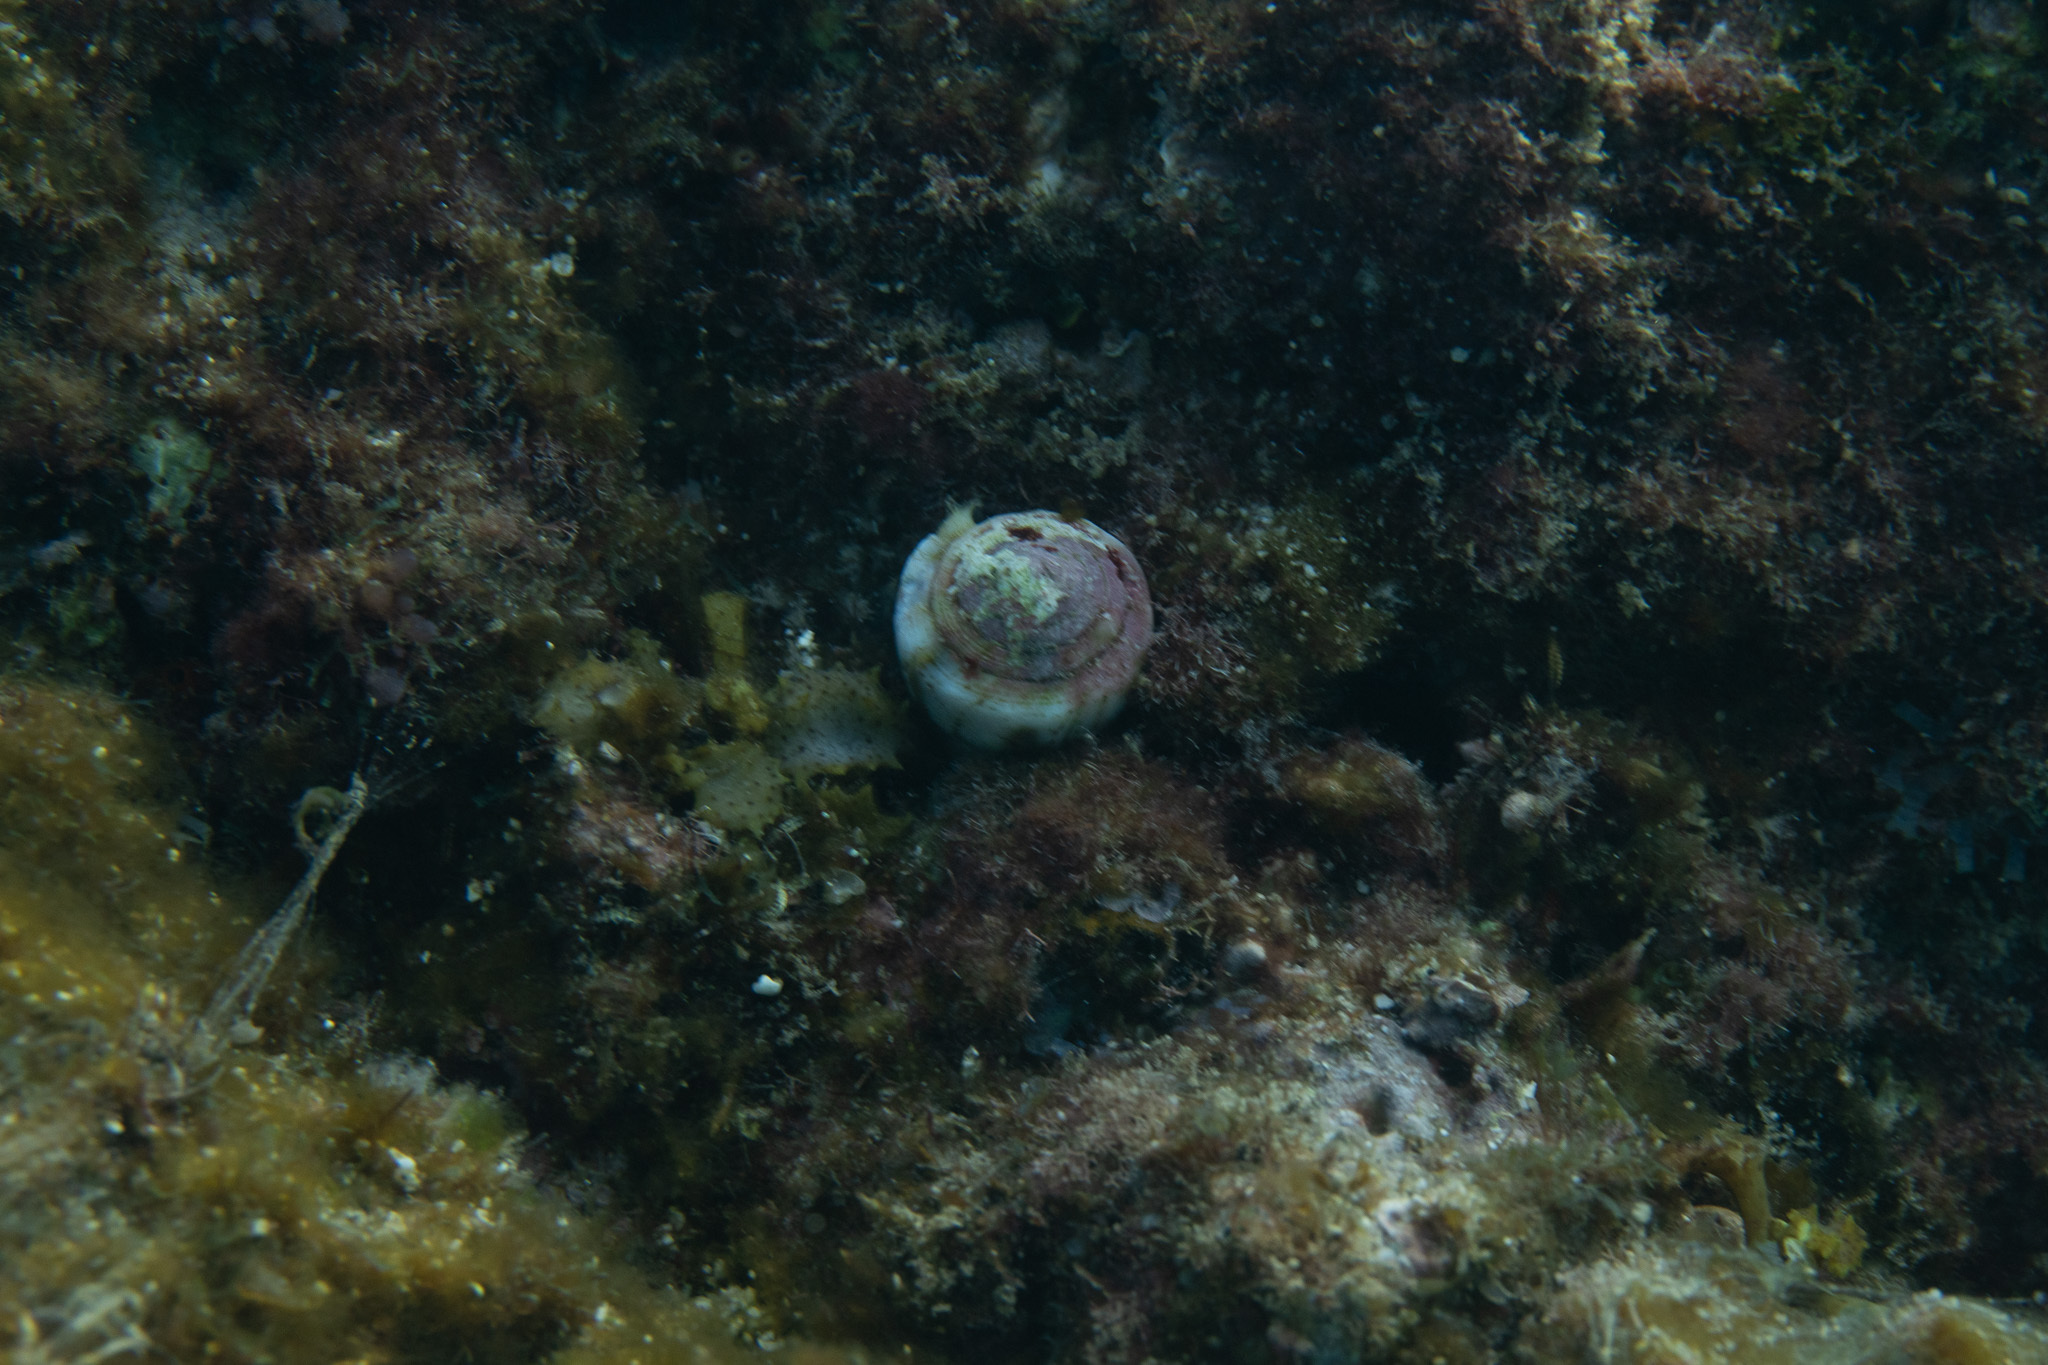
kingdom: Animalia
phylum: Mollusca
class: Gastropoda
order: Neogastropoda
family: Conidae
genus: Conus
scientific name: Conus rattus
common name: Rat cone
